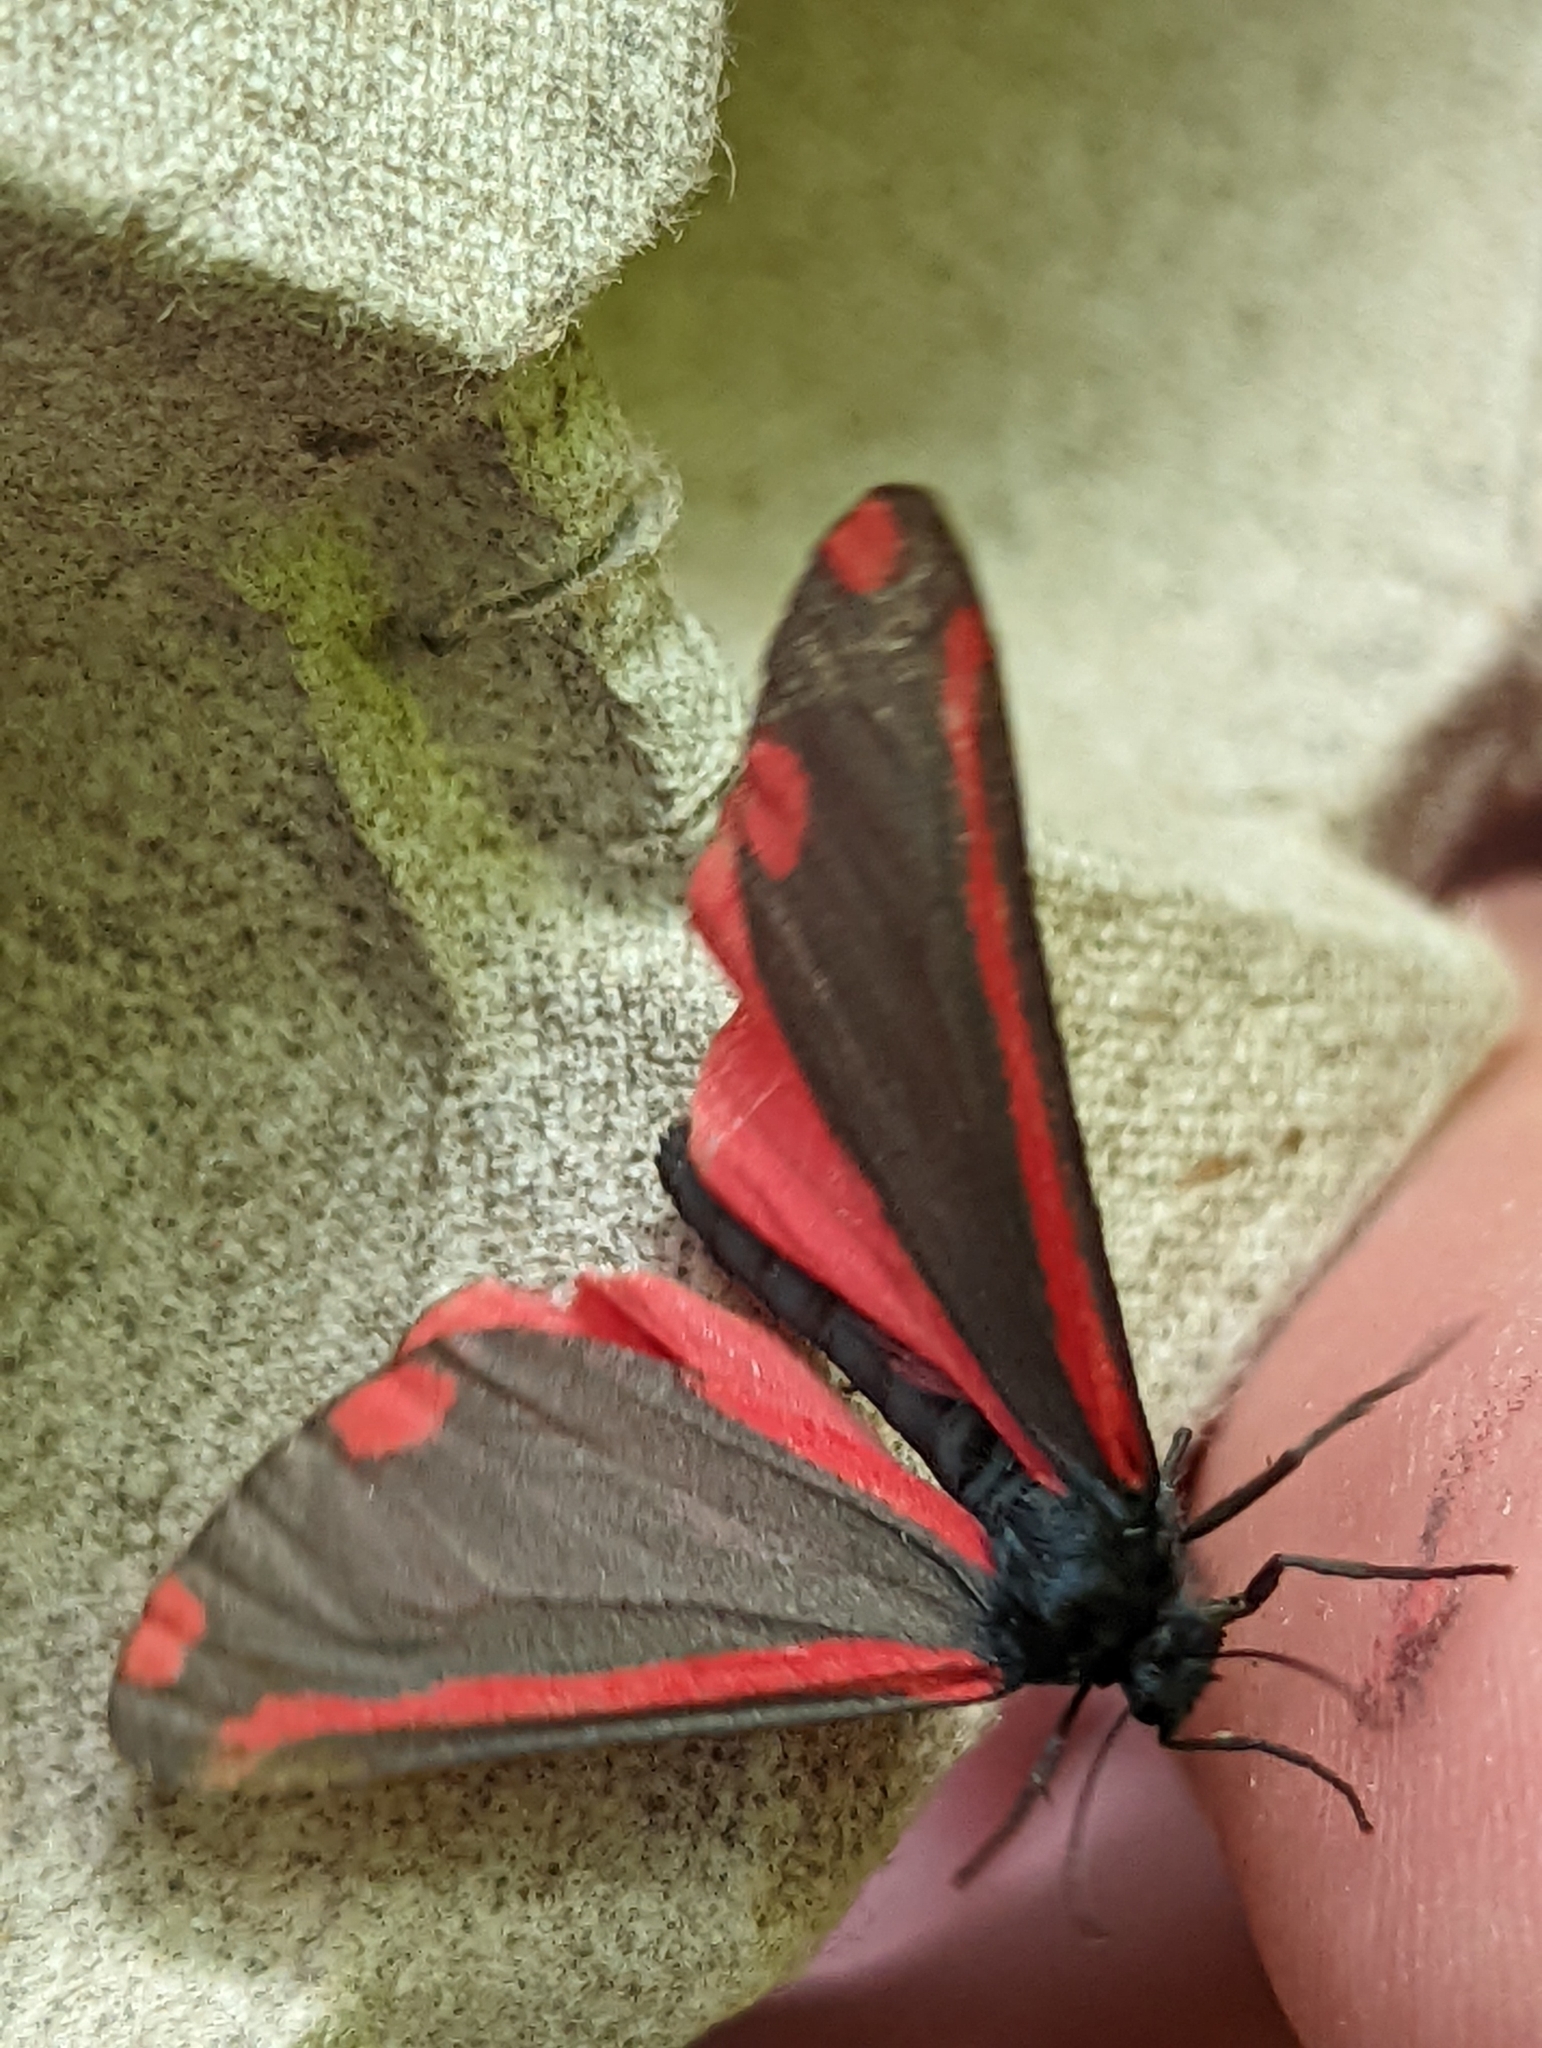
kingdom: Animalia
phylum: Arthropoda
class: Insecta
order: Lepidoptera
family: Erebidae
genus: Tyria
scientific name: Tyria jacobaeae
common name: Cinnabar
